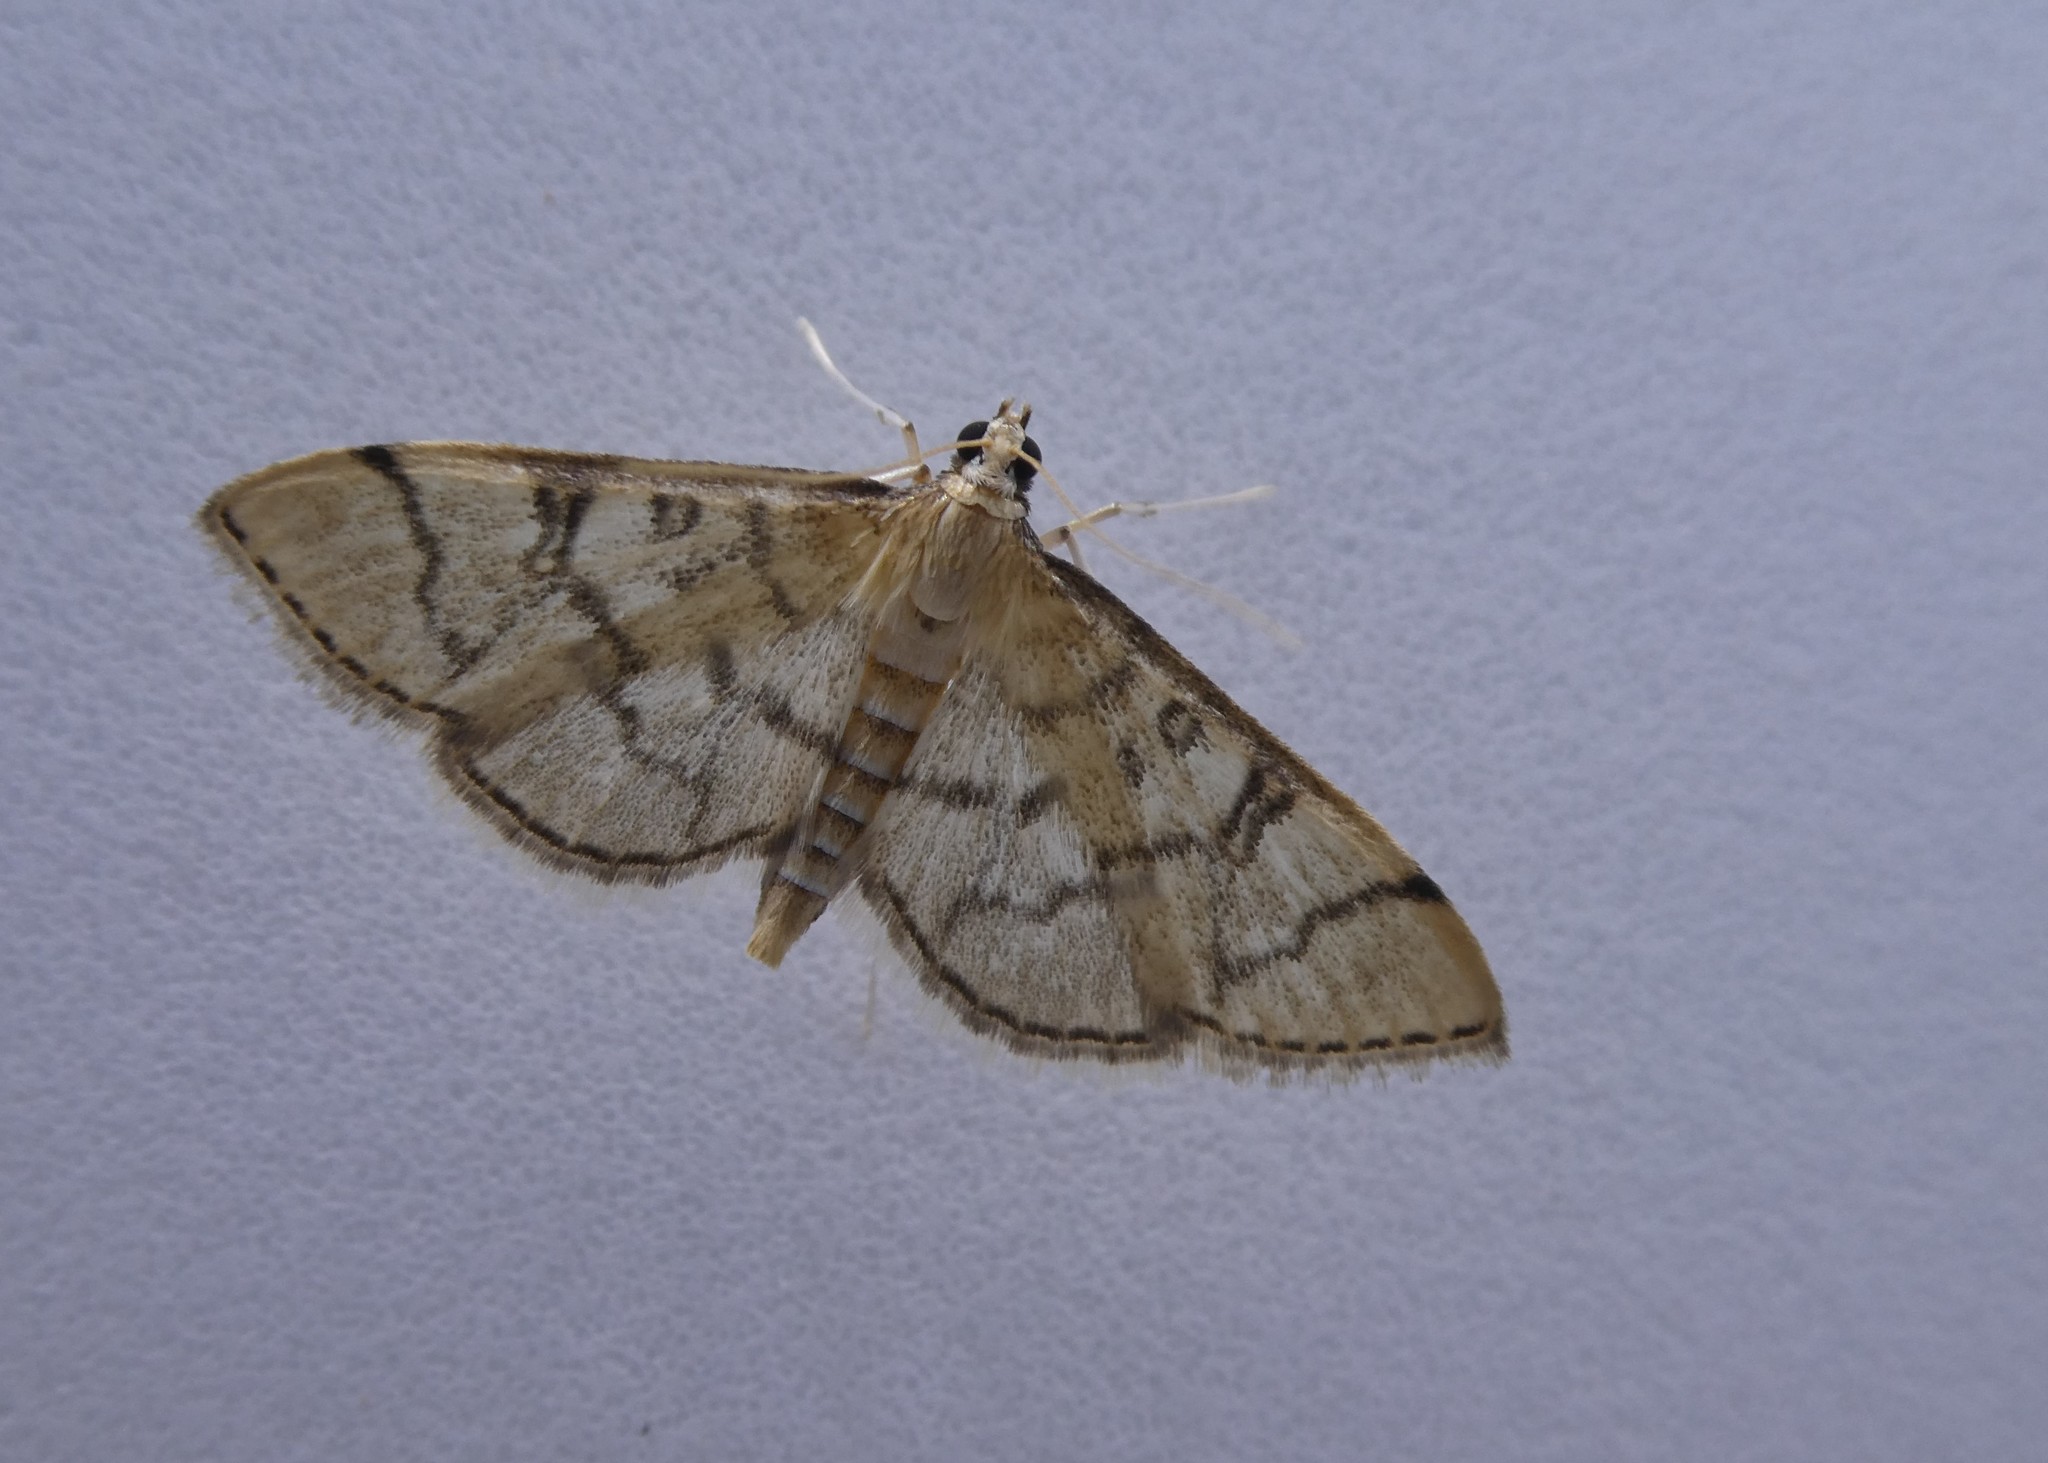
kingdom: Animalia
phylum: Arthropoda
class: Insecta
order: Lepidoptera
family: Crambidae
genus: Lamprosema
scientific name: Lamprosema Blepharomastix ranalis
